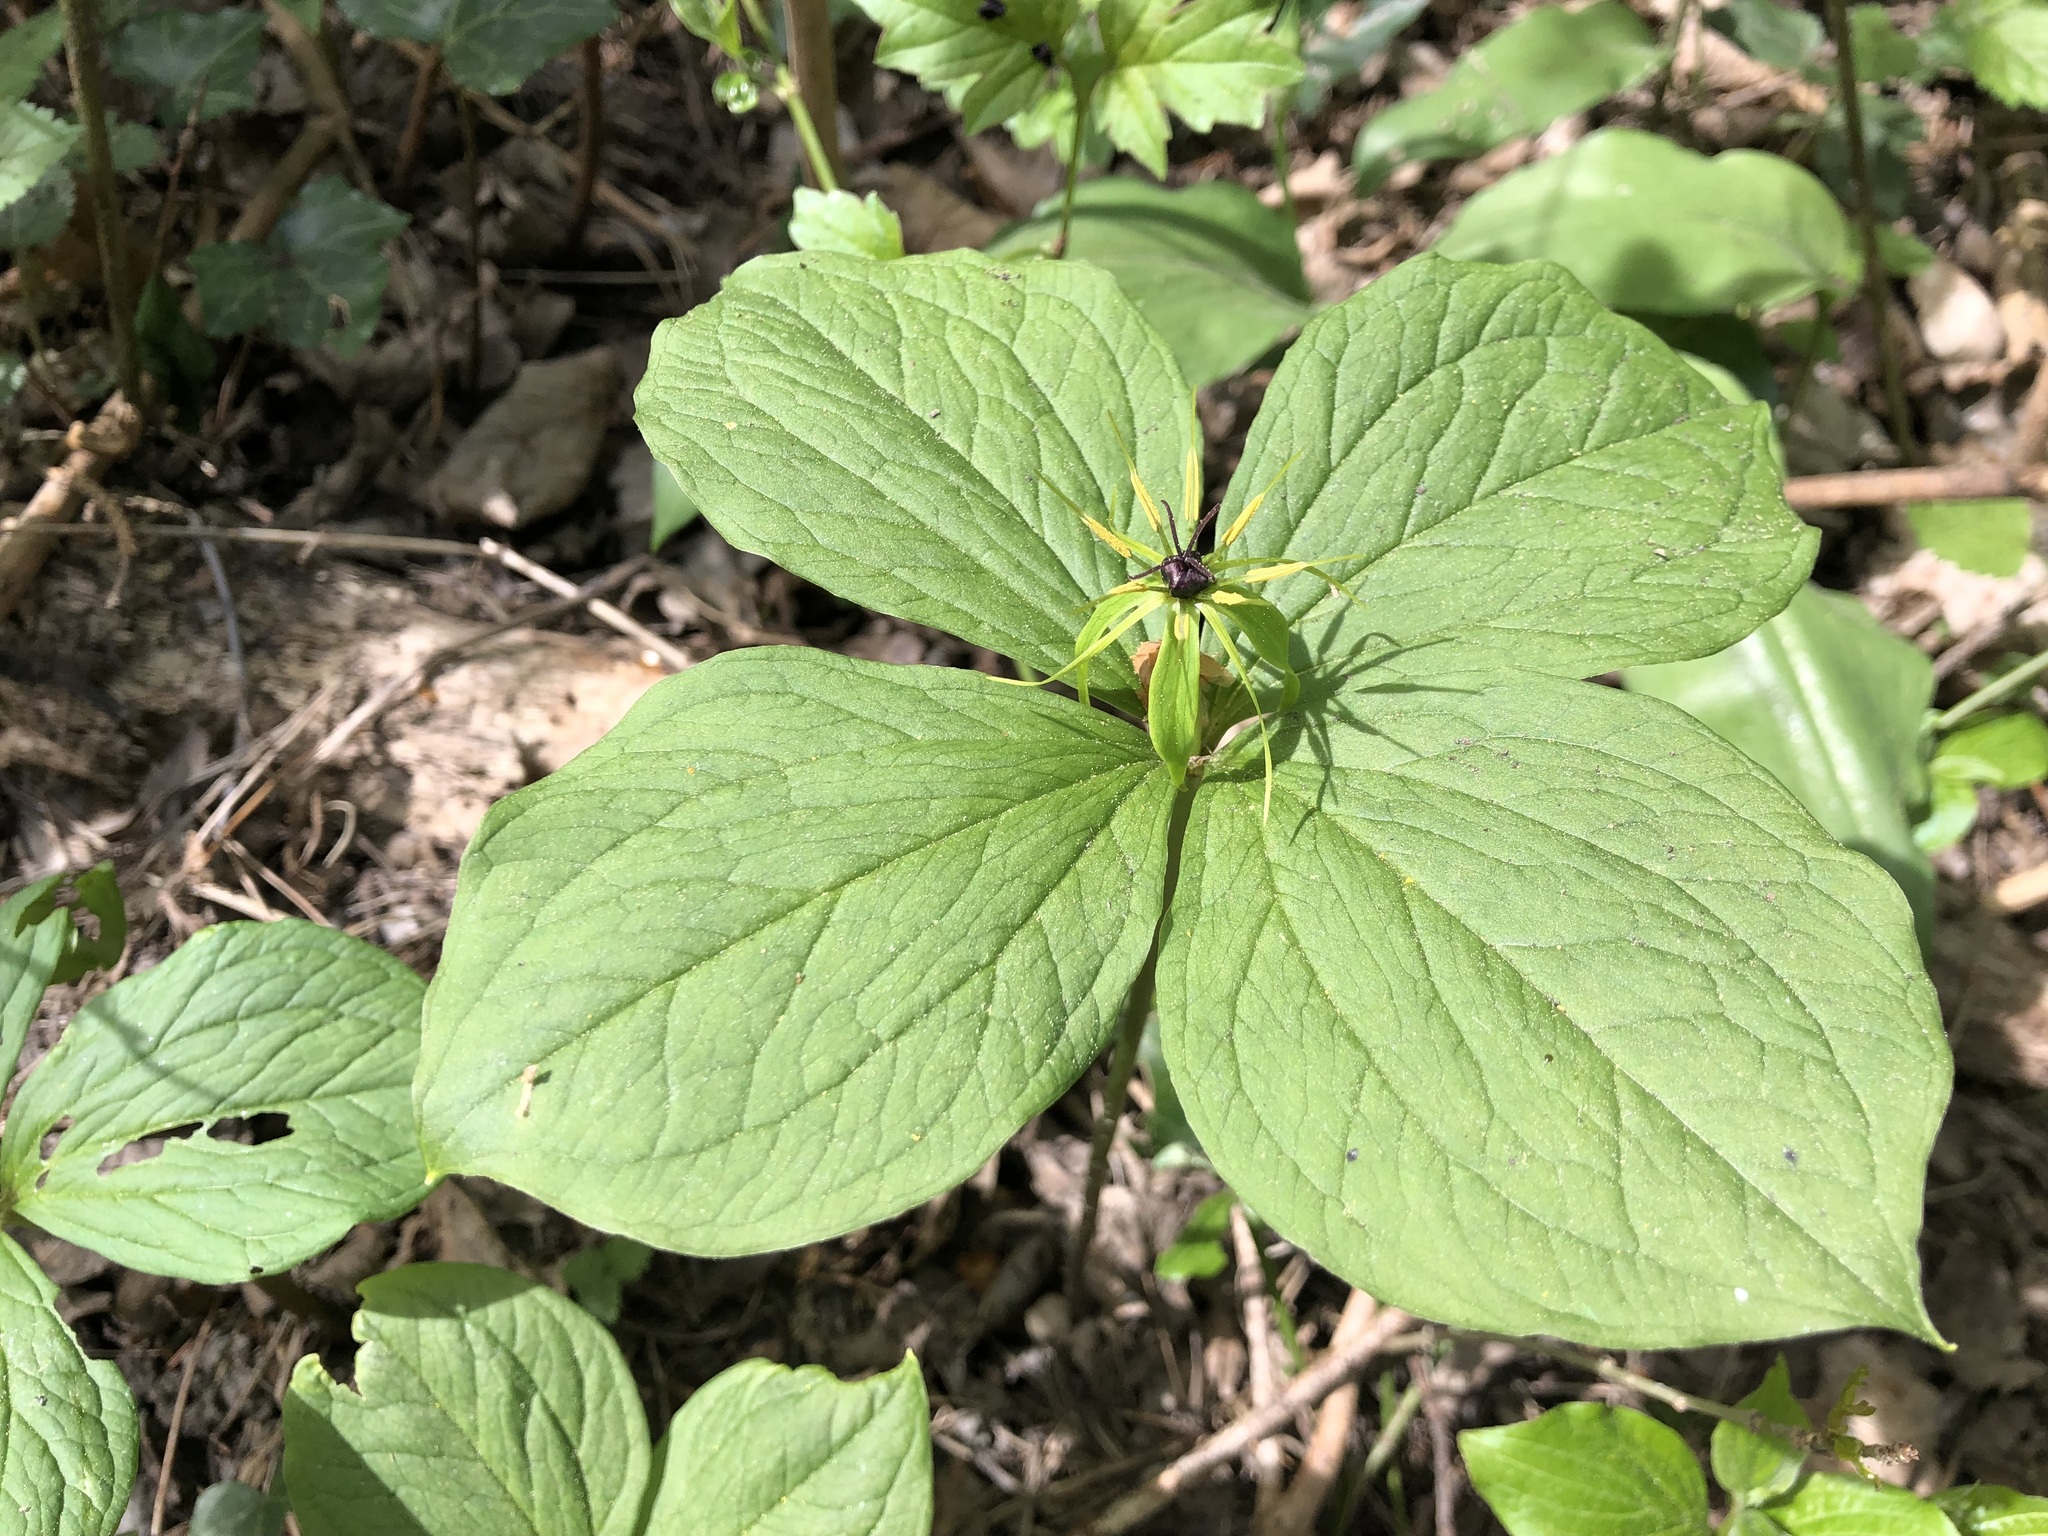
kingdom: Plantae
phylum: Tracheophyta
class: Liliopsida
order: Liliales
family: Melanthiaceae
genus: Paris
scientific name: Paris quadrifolia
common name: Herb-paris
